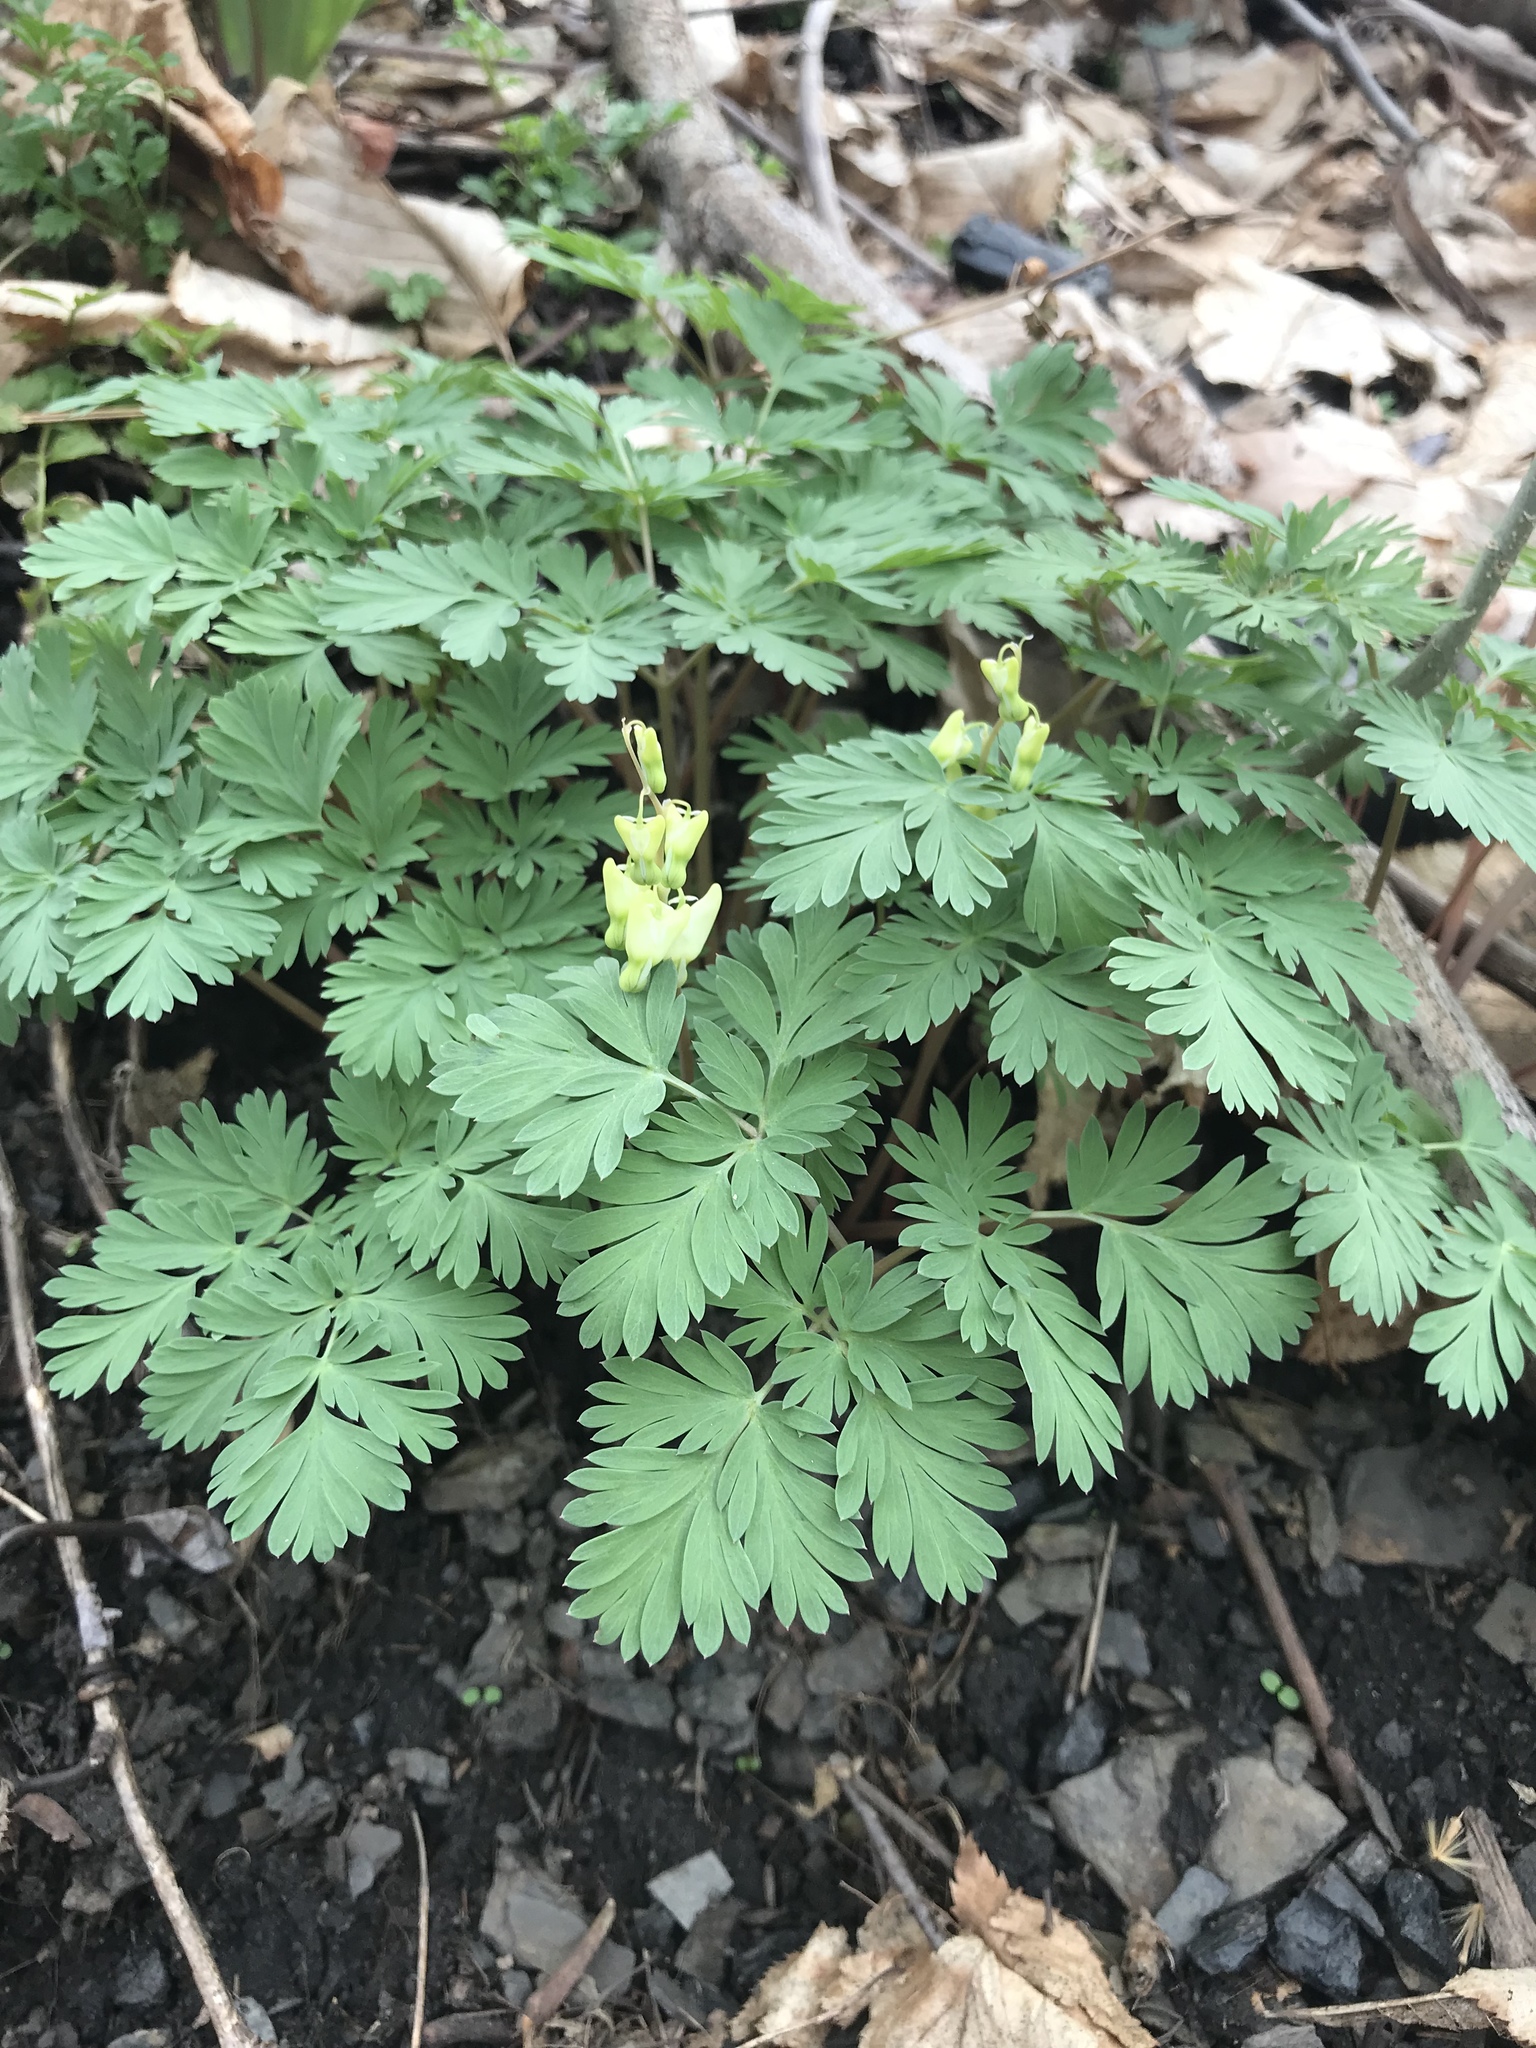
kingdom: Plantae
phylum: Tracheophyta
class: Magnoliopsida
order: Ranunculales
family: Papaveraceae
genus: Dicentra
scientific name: Dicentra cucullaria
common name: Dutchman's breeches
